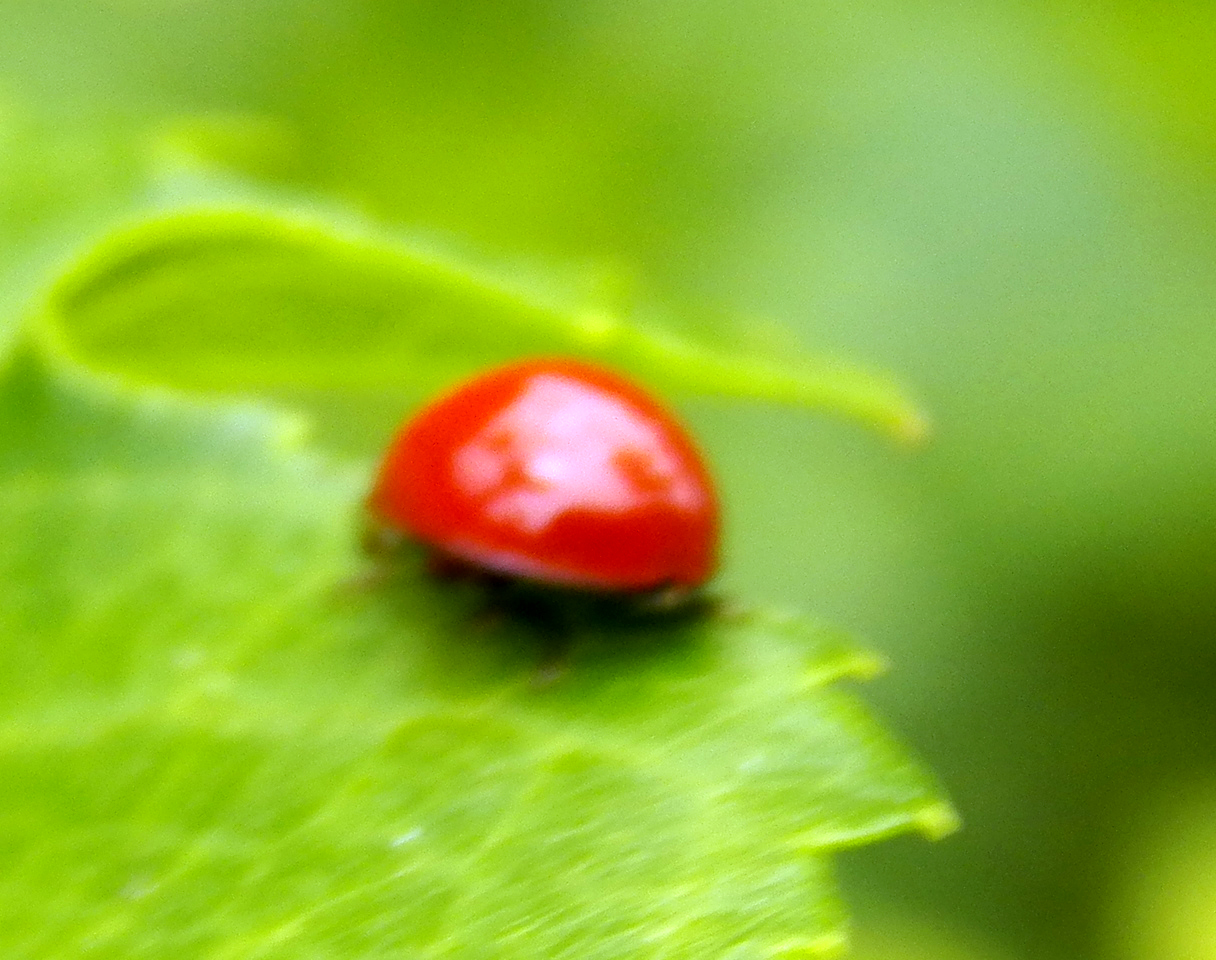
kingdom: Animalia
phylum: Arthropoda
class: Insecta
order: Coleoptera
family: Coccinellidae
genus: Cycloneda
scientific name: Cycloneda
